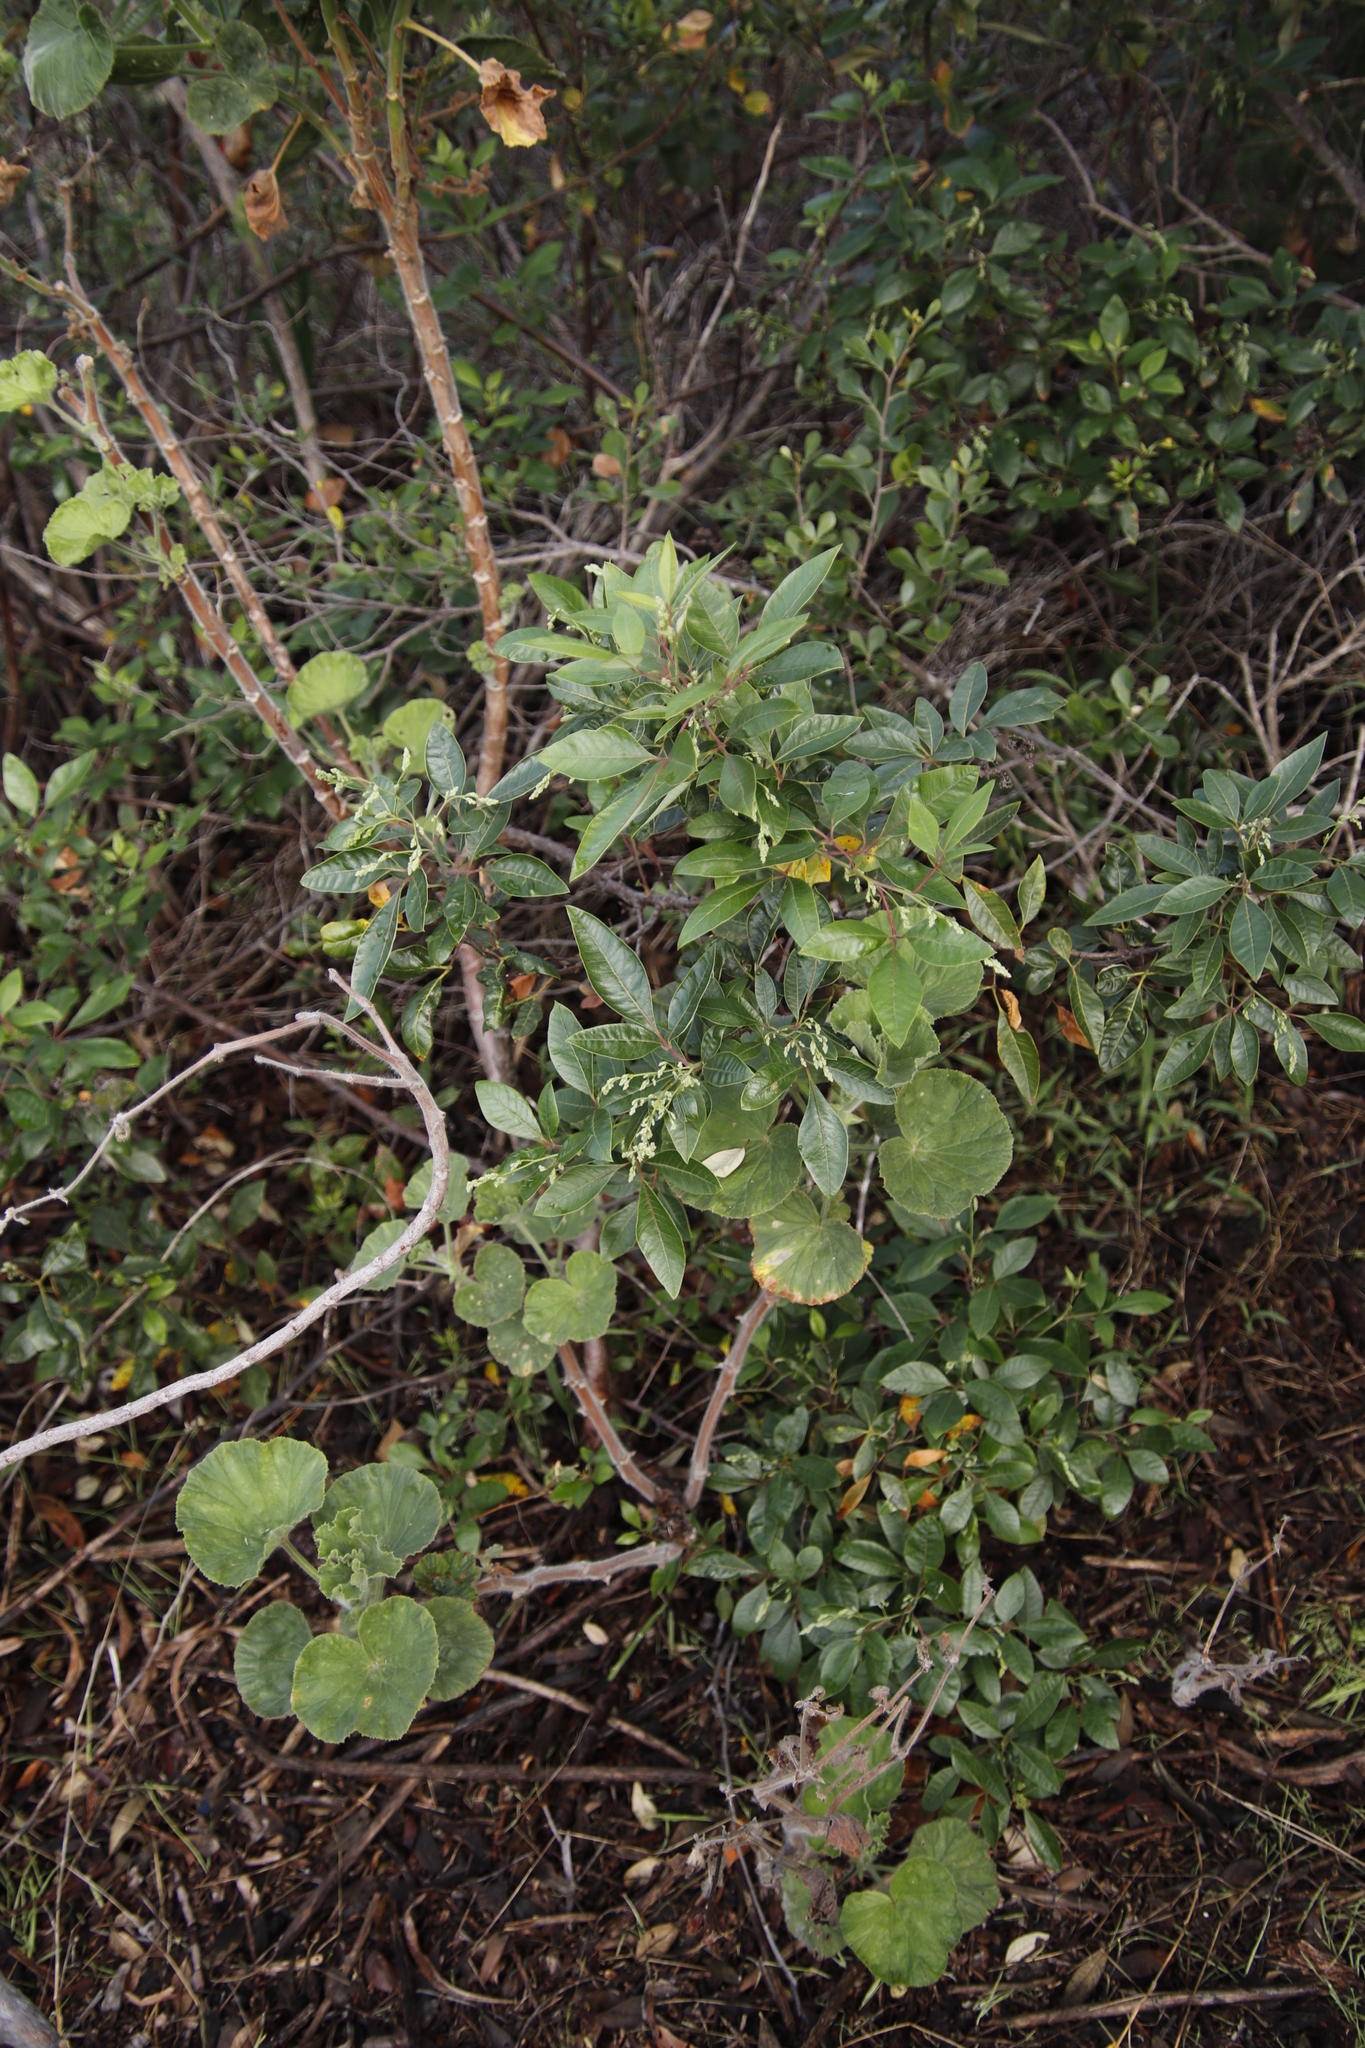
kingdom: Plantae
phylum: Tracheophyta
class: Magnoliopsida
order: Sapindales
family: Anacardiaceae
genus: Searsia
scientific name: Searsia tomentosa
